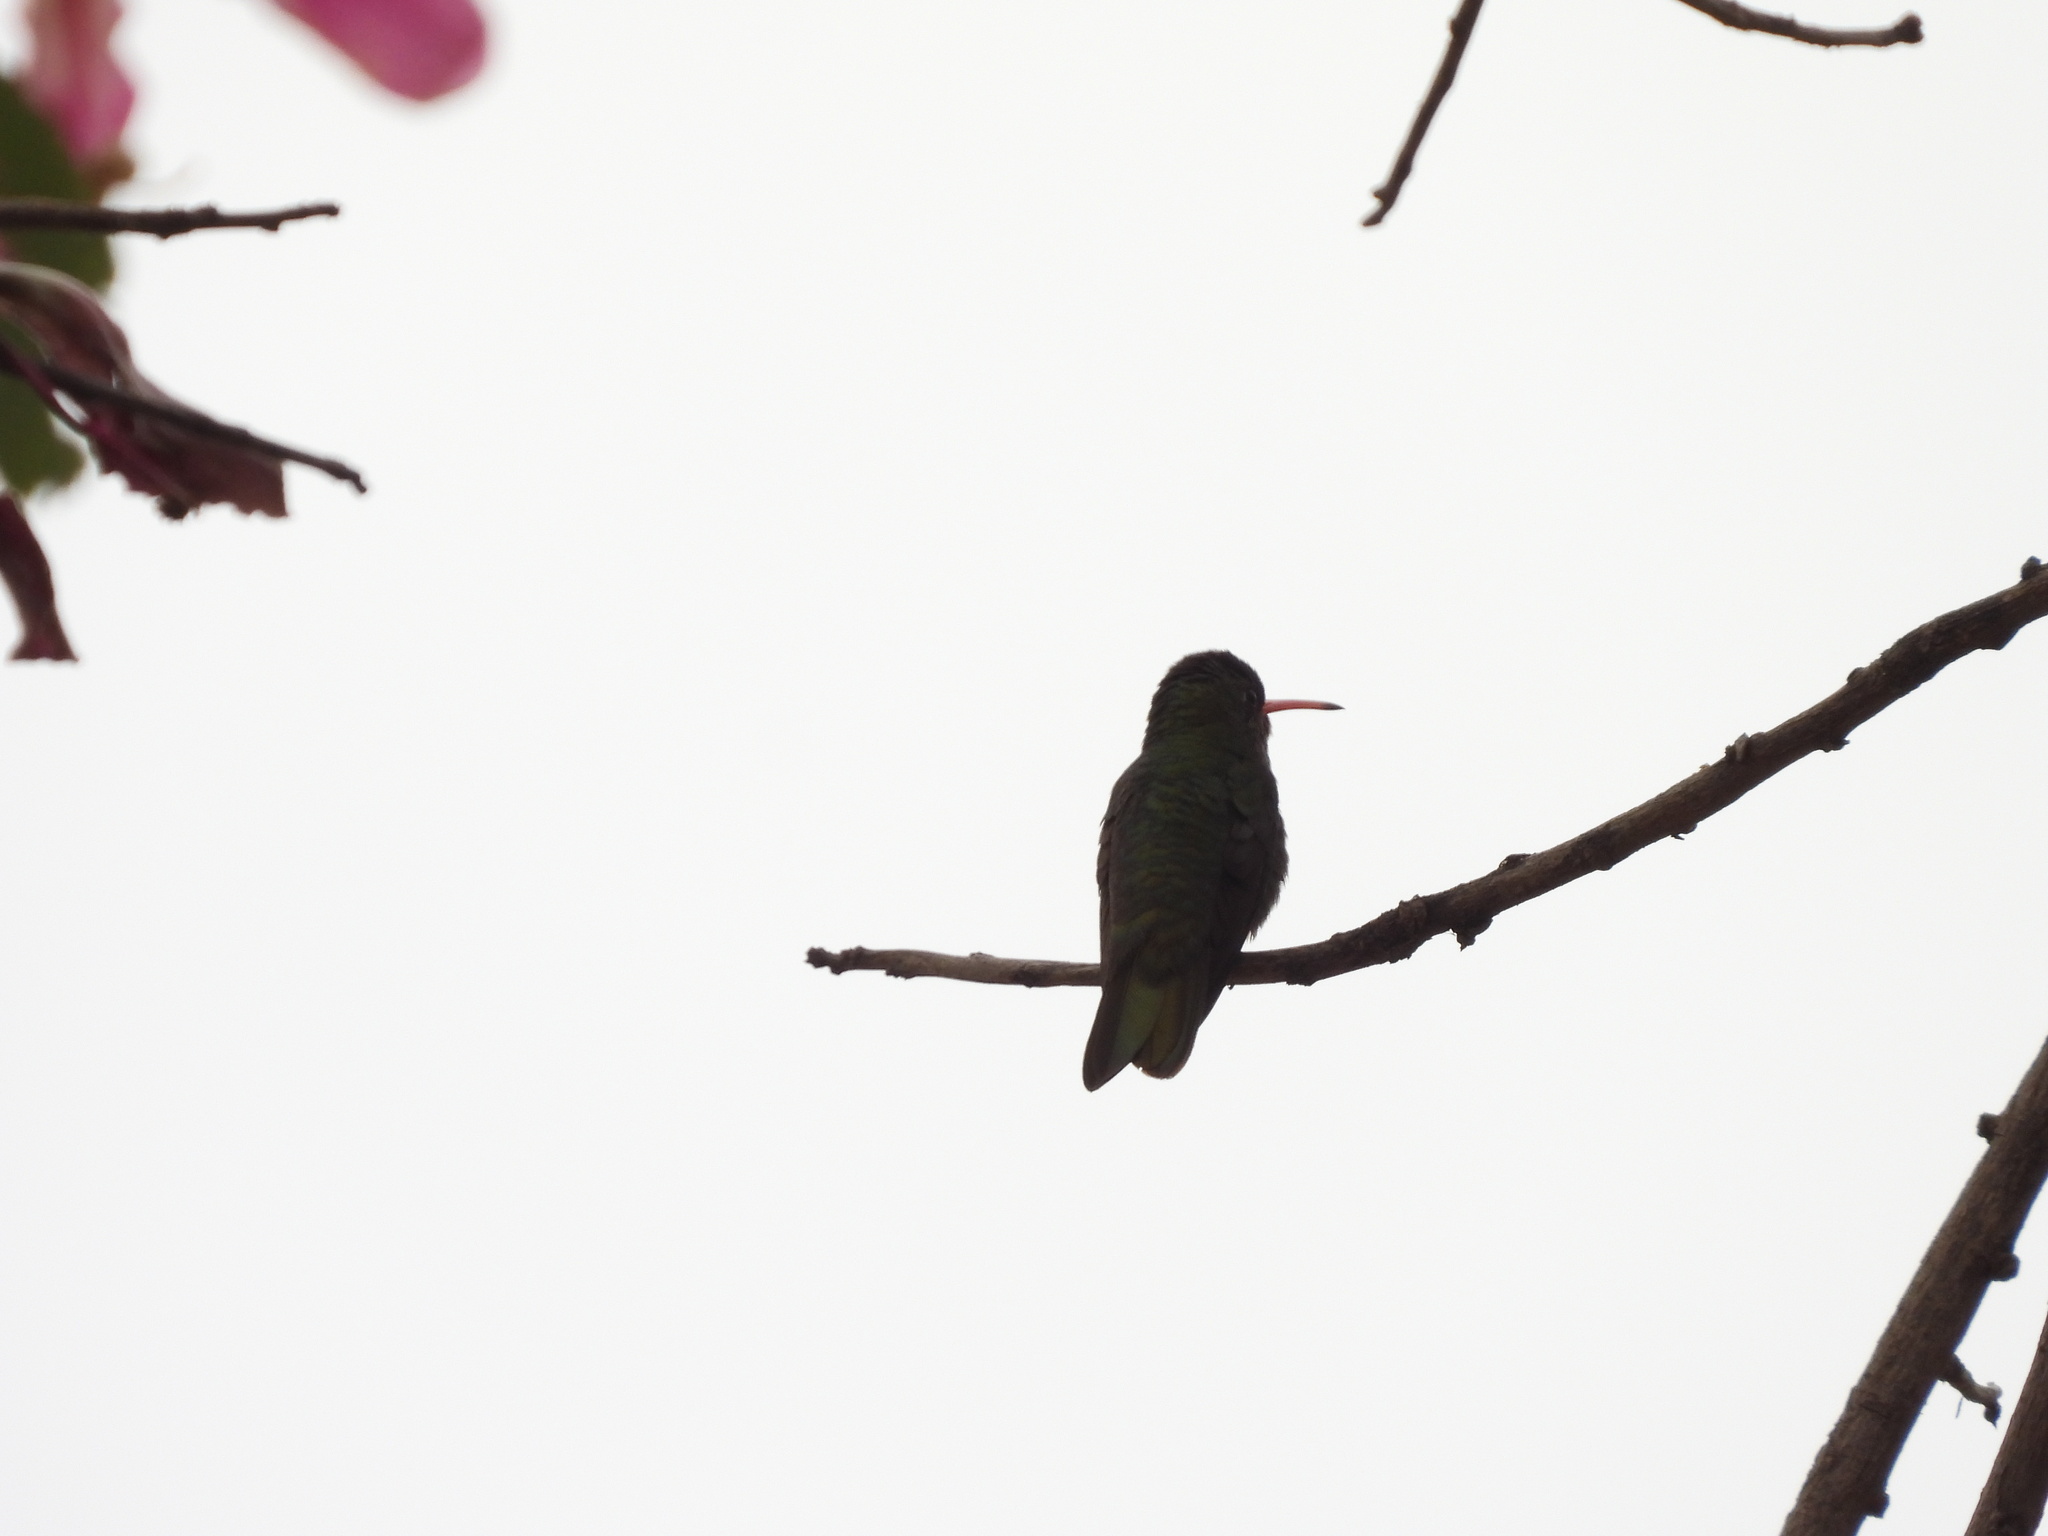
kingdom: Animalia
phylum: Chordata
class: Aves
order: Apodiformes
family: Trochilidae
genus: Chlorostilbon
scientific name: Chlorostilbon lucidus
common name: Glittering-bellied emerald
